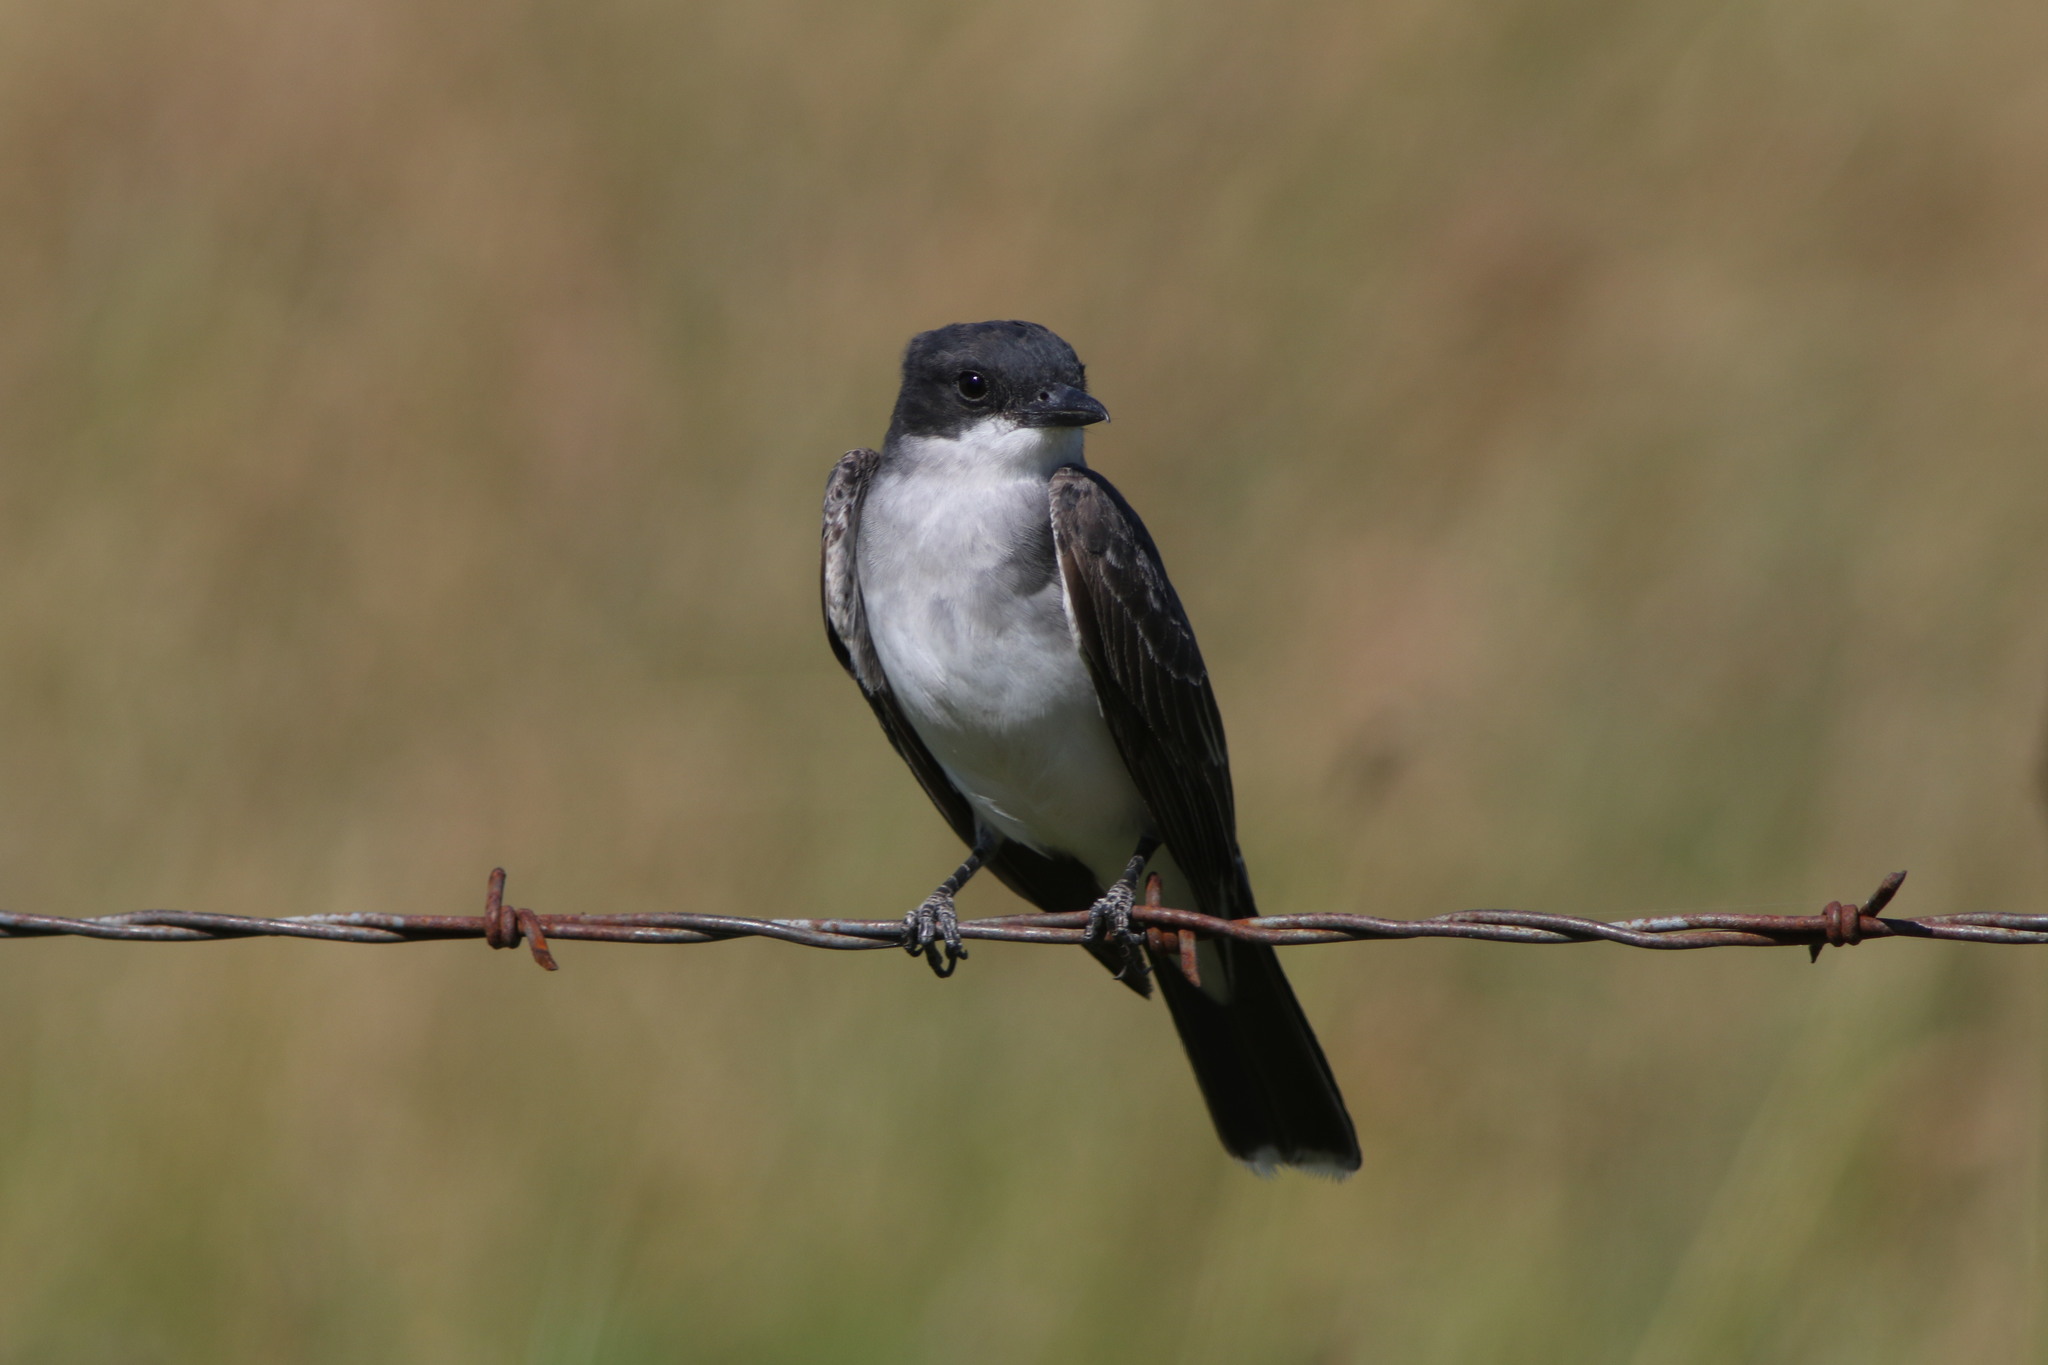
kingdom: Animalia
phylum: Chordata
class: Aves
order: Passeriformes
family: Tyrannidae
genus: Tyrannus
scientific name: Tyrannus tyrannus
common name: Eastern kingbird
